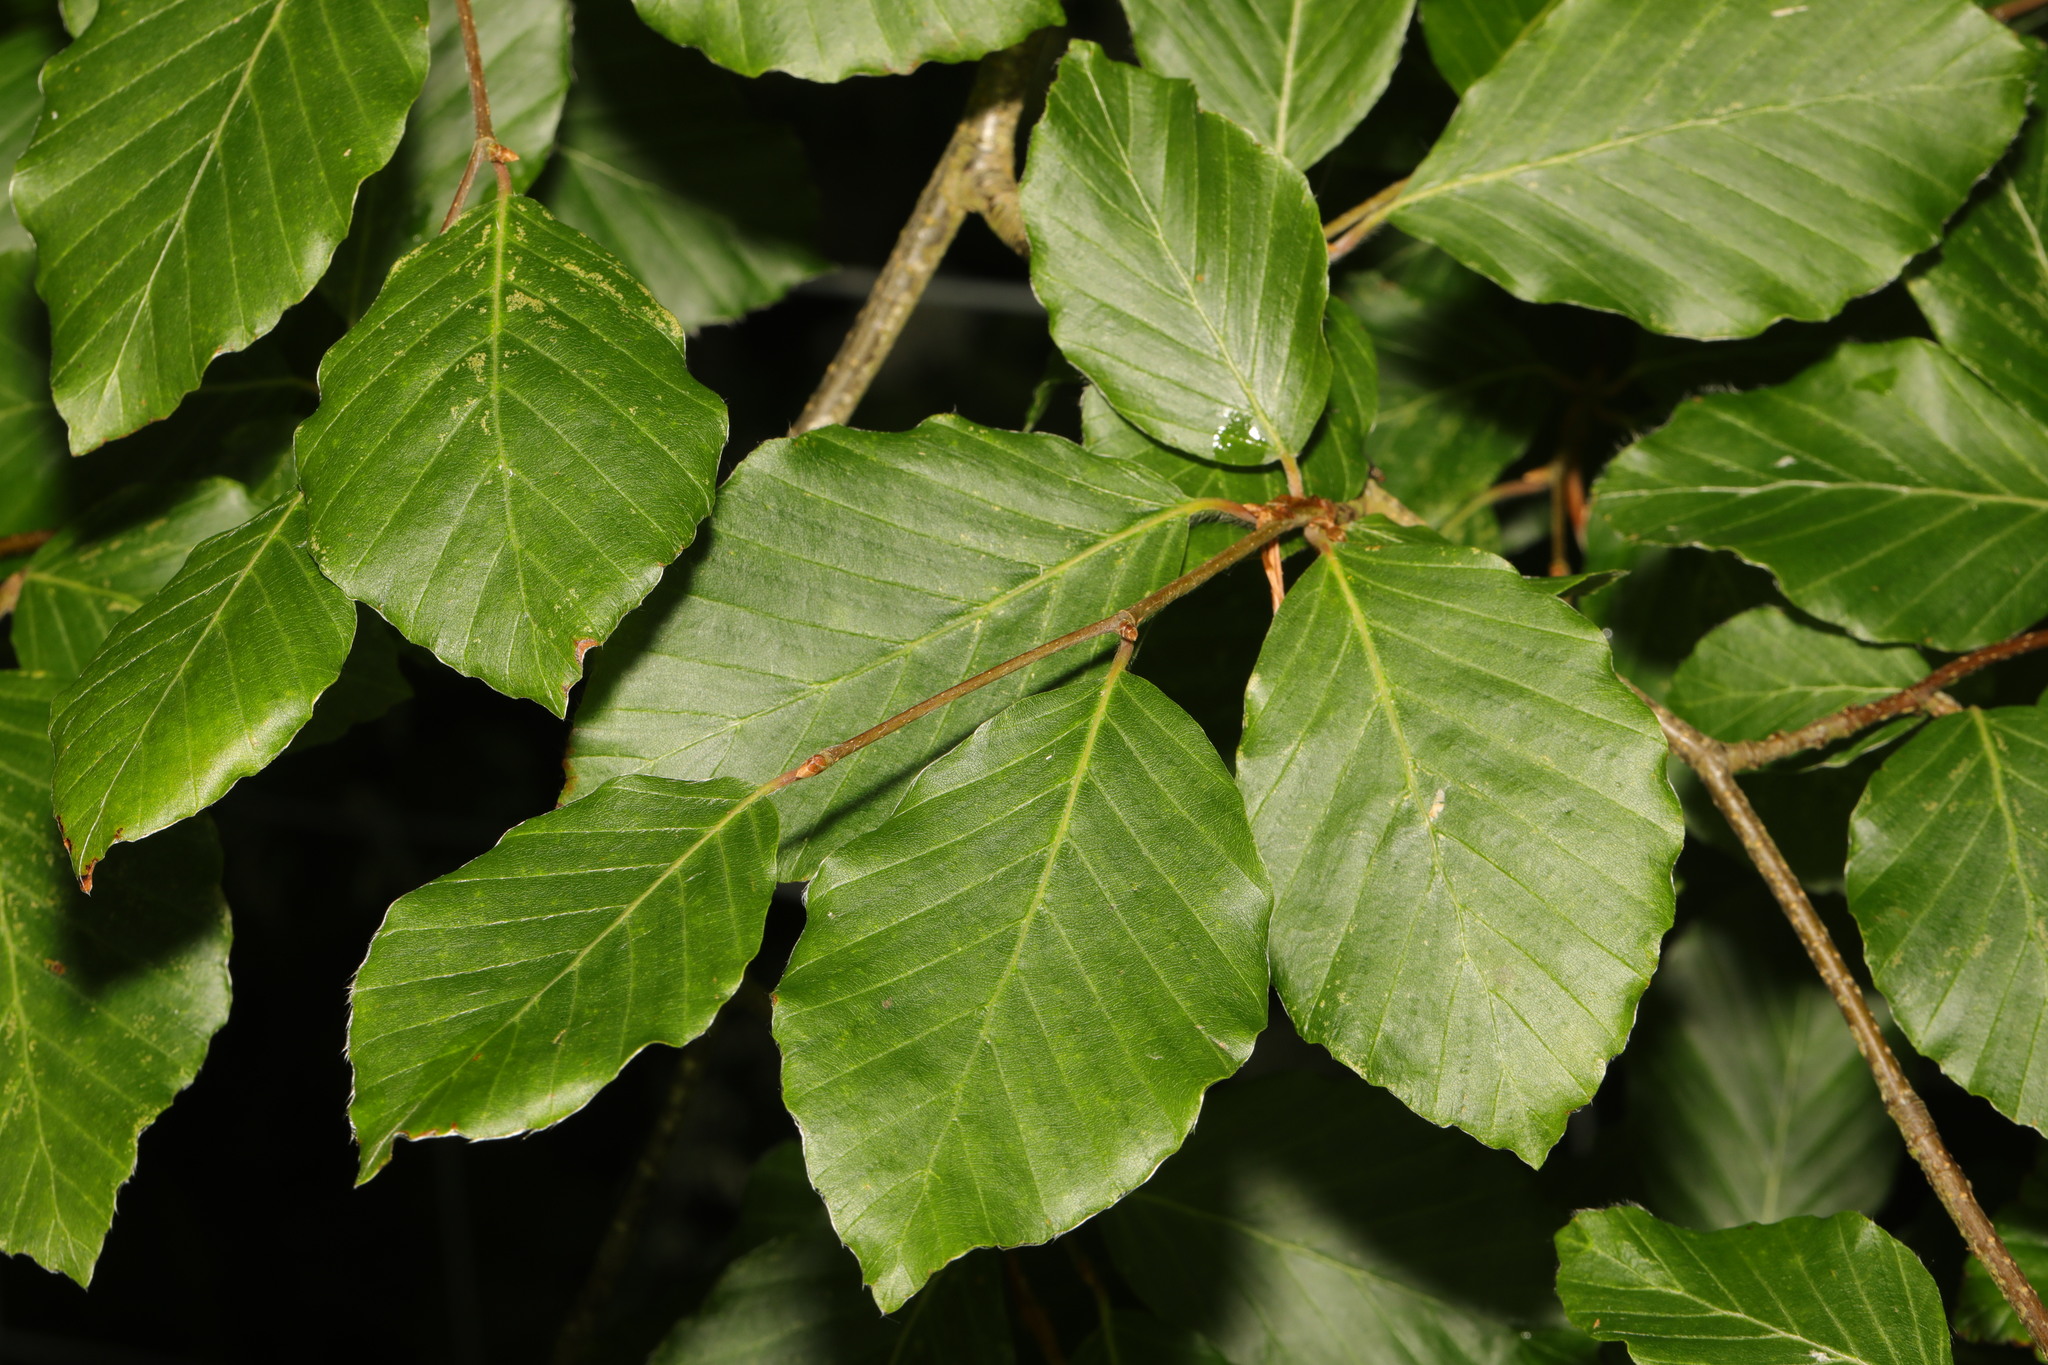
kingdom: Plantae
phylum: Tracheophyta
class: Magnoliopsida
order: Fagales
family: Fagaceae
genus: Fagus
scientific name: Fagus sylvatica
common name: Beech
